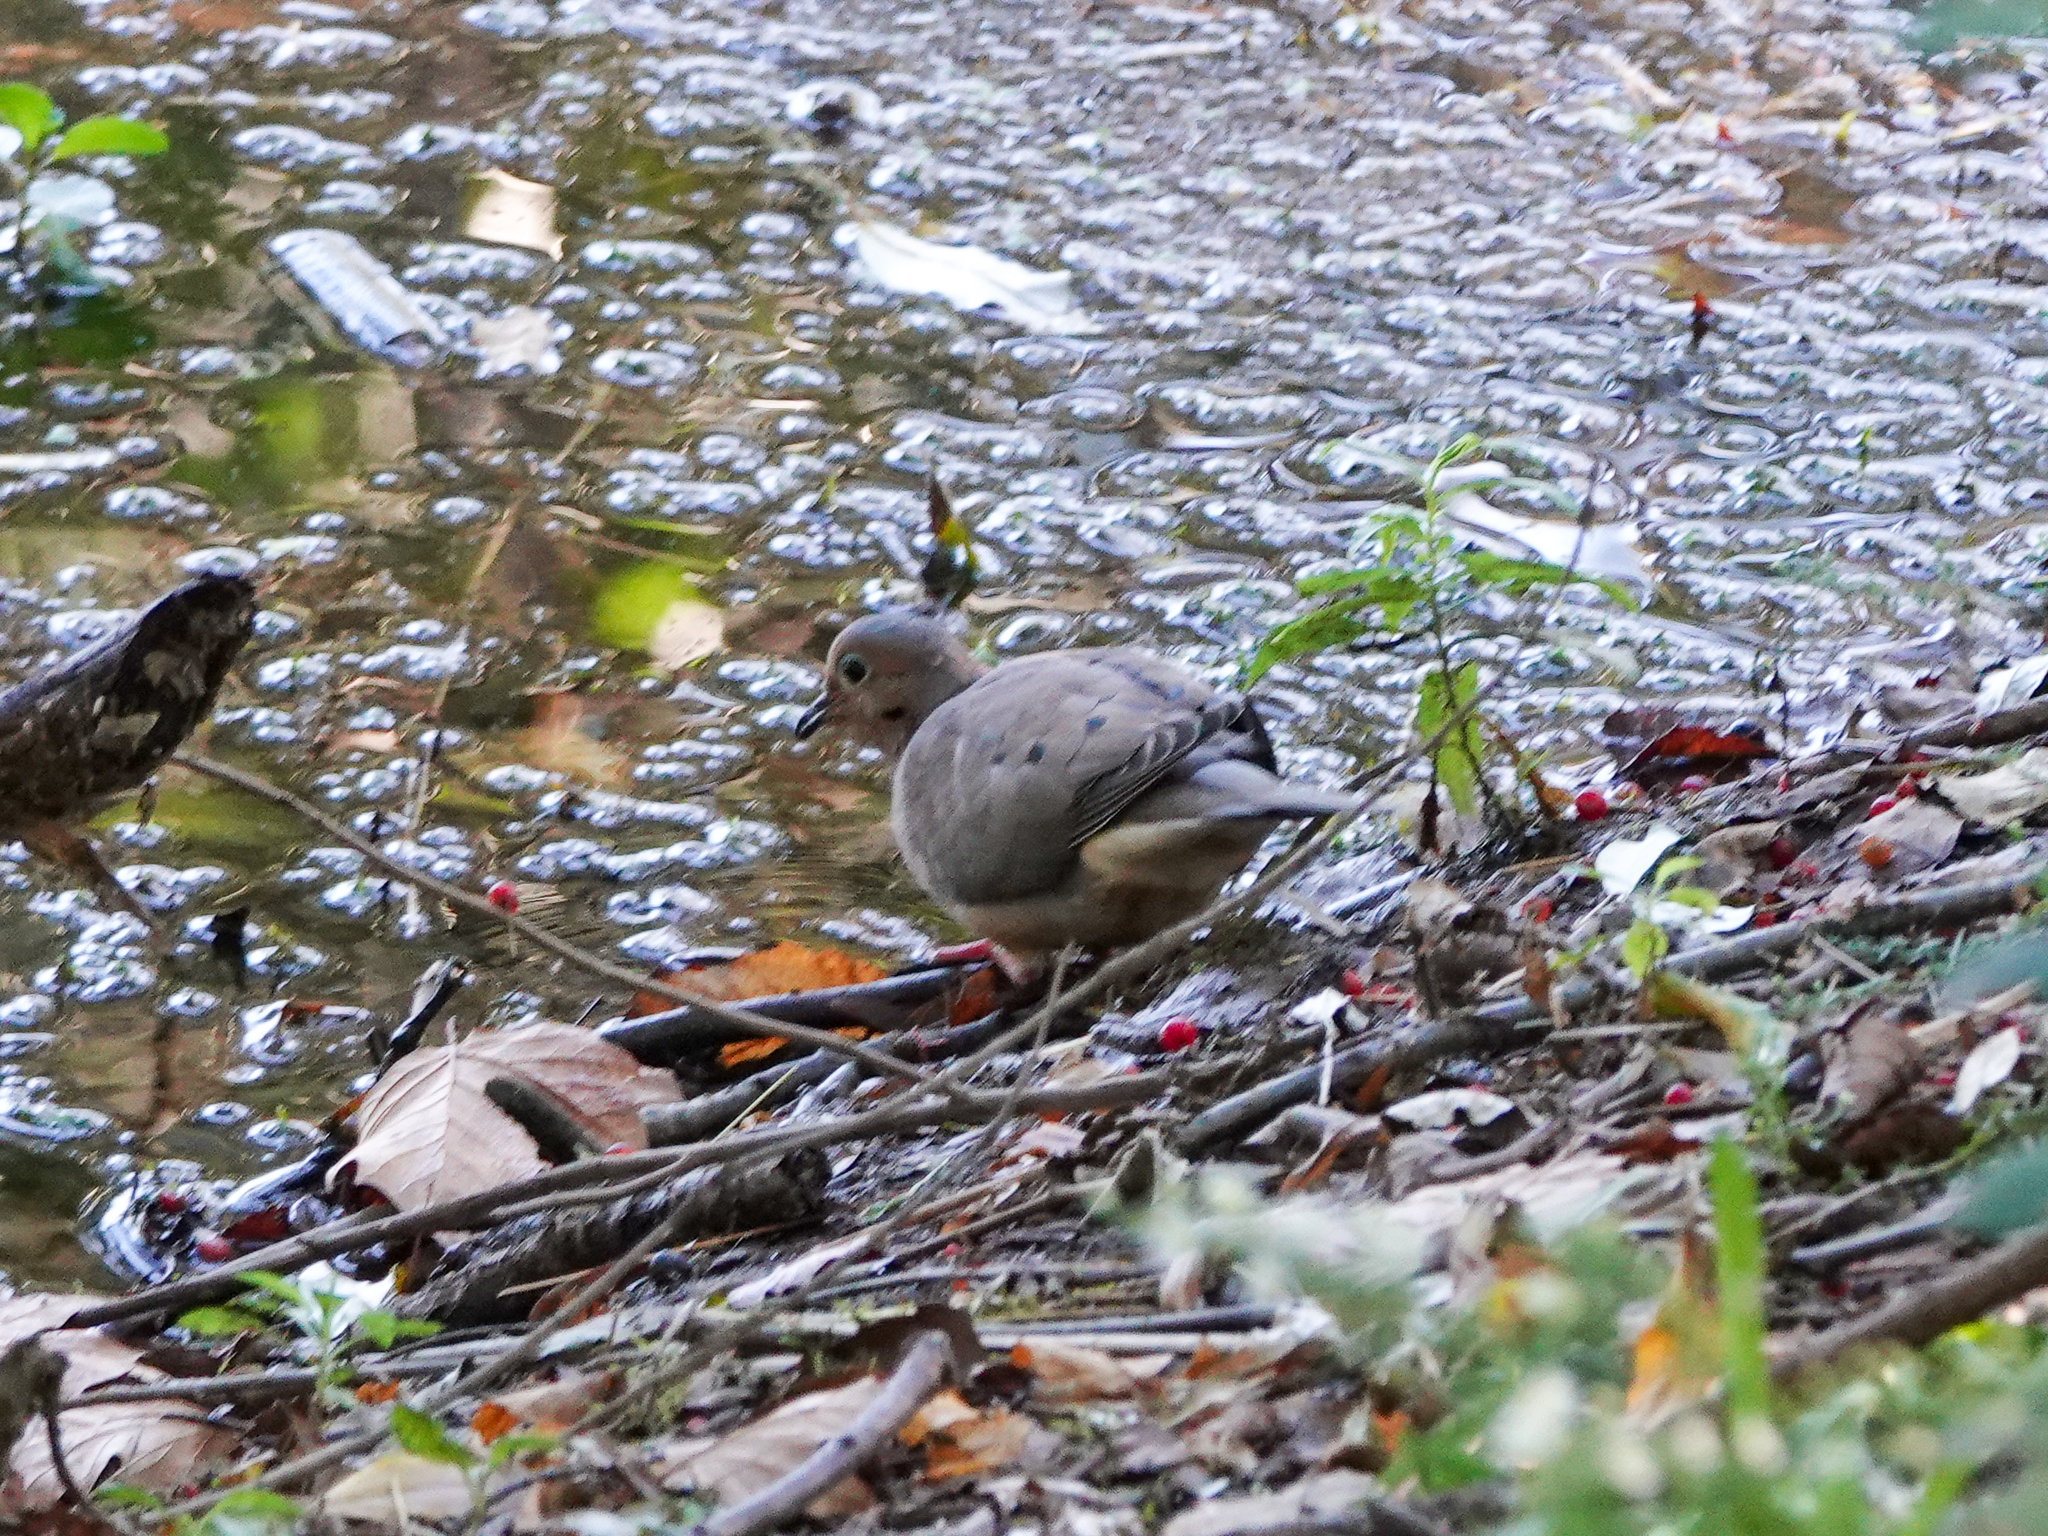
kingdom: Animalia
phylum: Chordata
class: Aves
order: Columbiformes
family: Columbidae
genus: Zenaida
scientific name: Zenaida macroura
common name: Mourning dove
